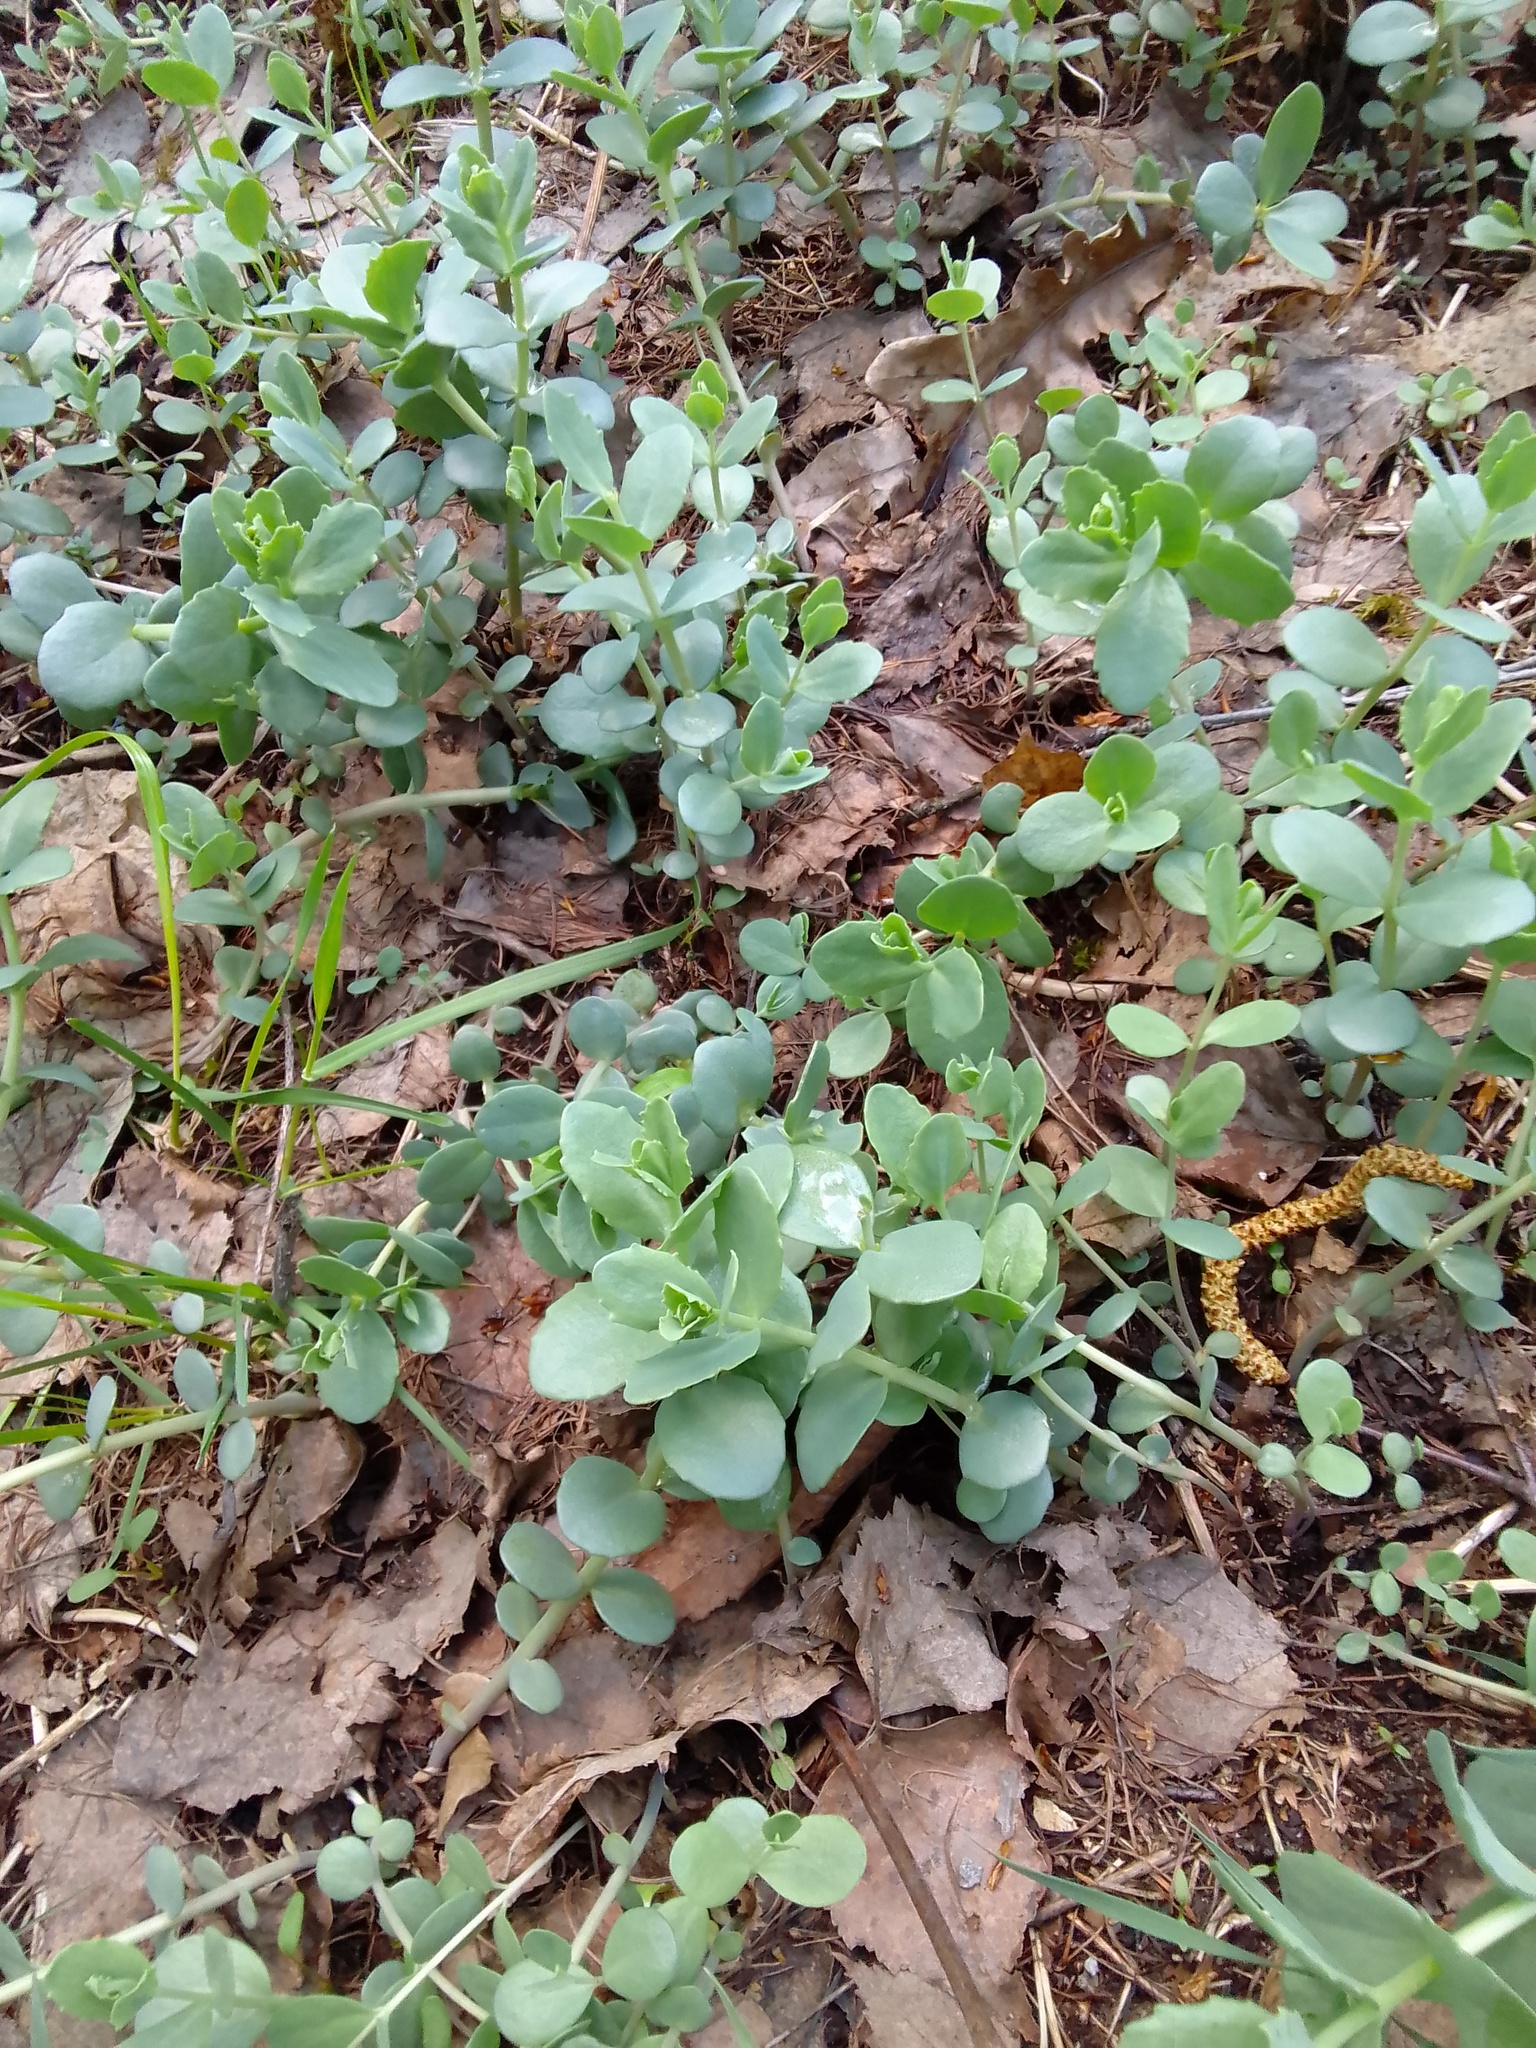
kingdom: Plantae
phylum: Tracheophyta
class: Magnoliopsida
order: Saxifragales
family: Crassulaceae
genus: Hylotelephium
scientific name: Hylotelephium maximum
